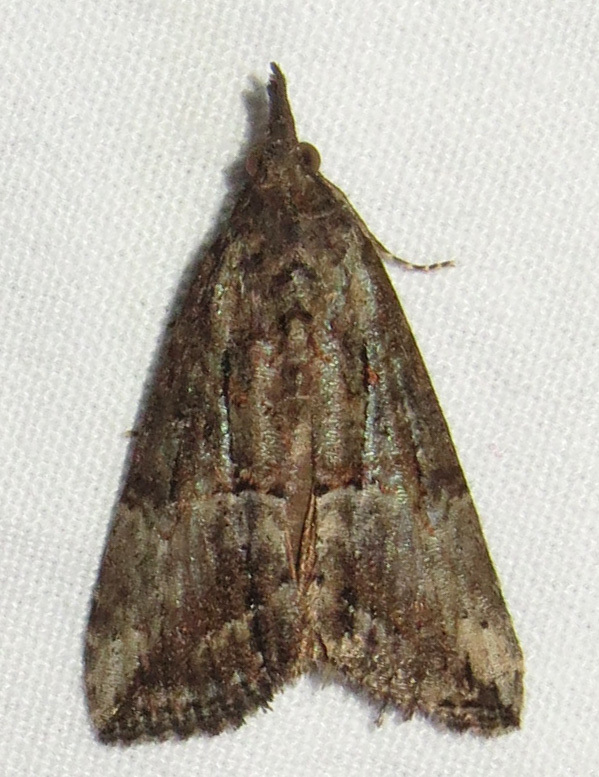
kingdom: Animalia
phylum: Arthropoda
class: Insecta
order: Lepidoptera
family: Erebidae
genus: Hypena
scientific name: Hypena scabra
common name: Green cloverworm
